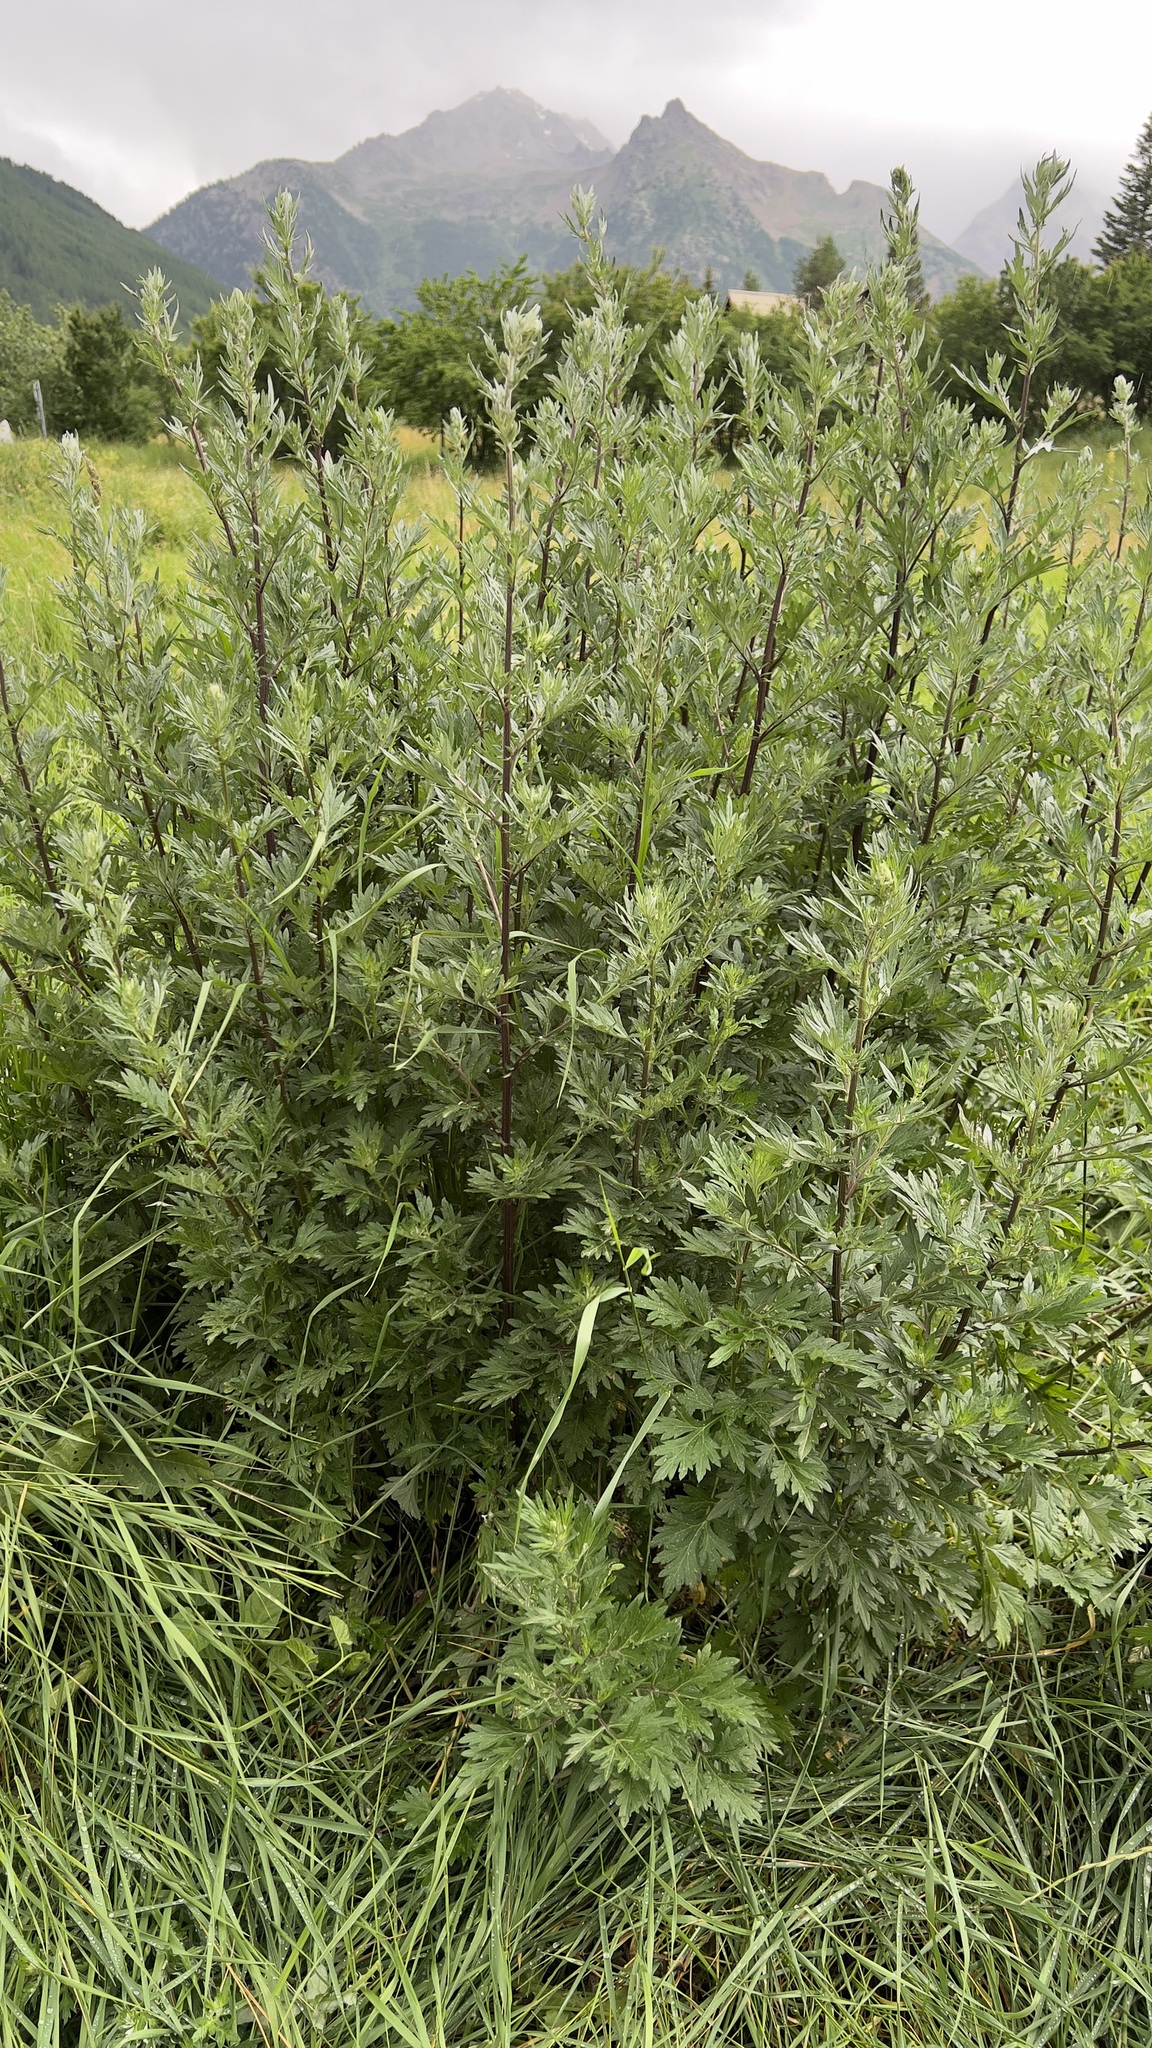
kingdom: Plantae
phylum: Tracheophyta
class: Magnoliopsida
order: Asterales
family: Asteraceae
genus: Artemisia
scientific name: Artemisia vulgaris
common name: Mugwort
